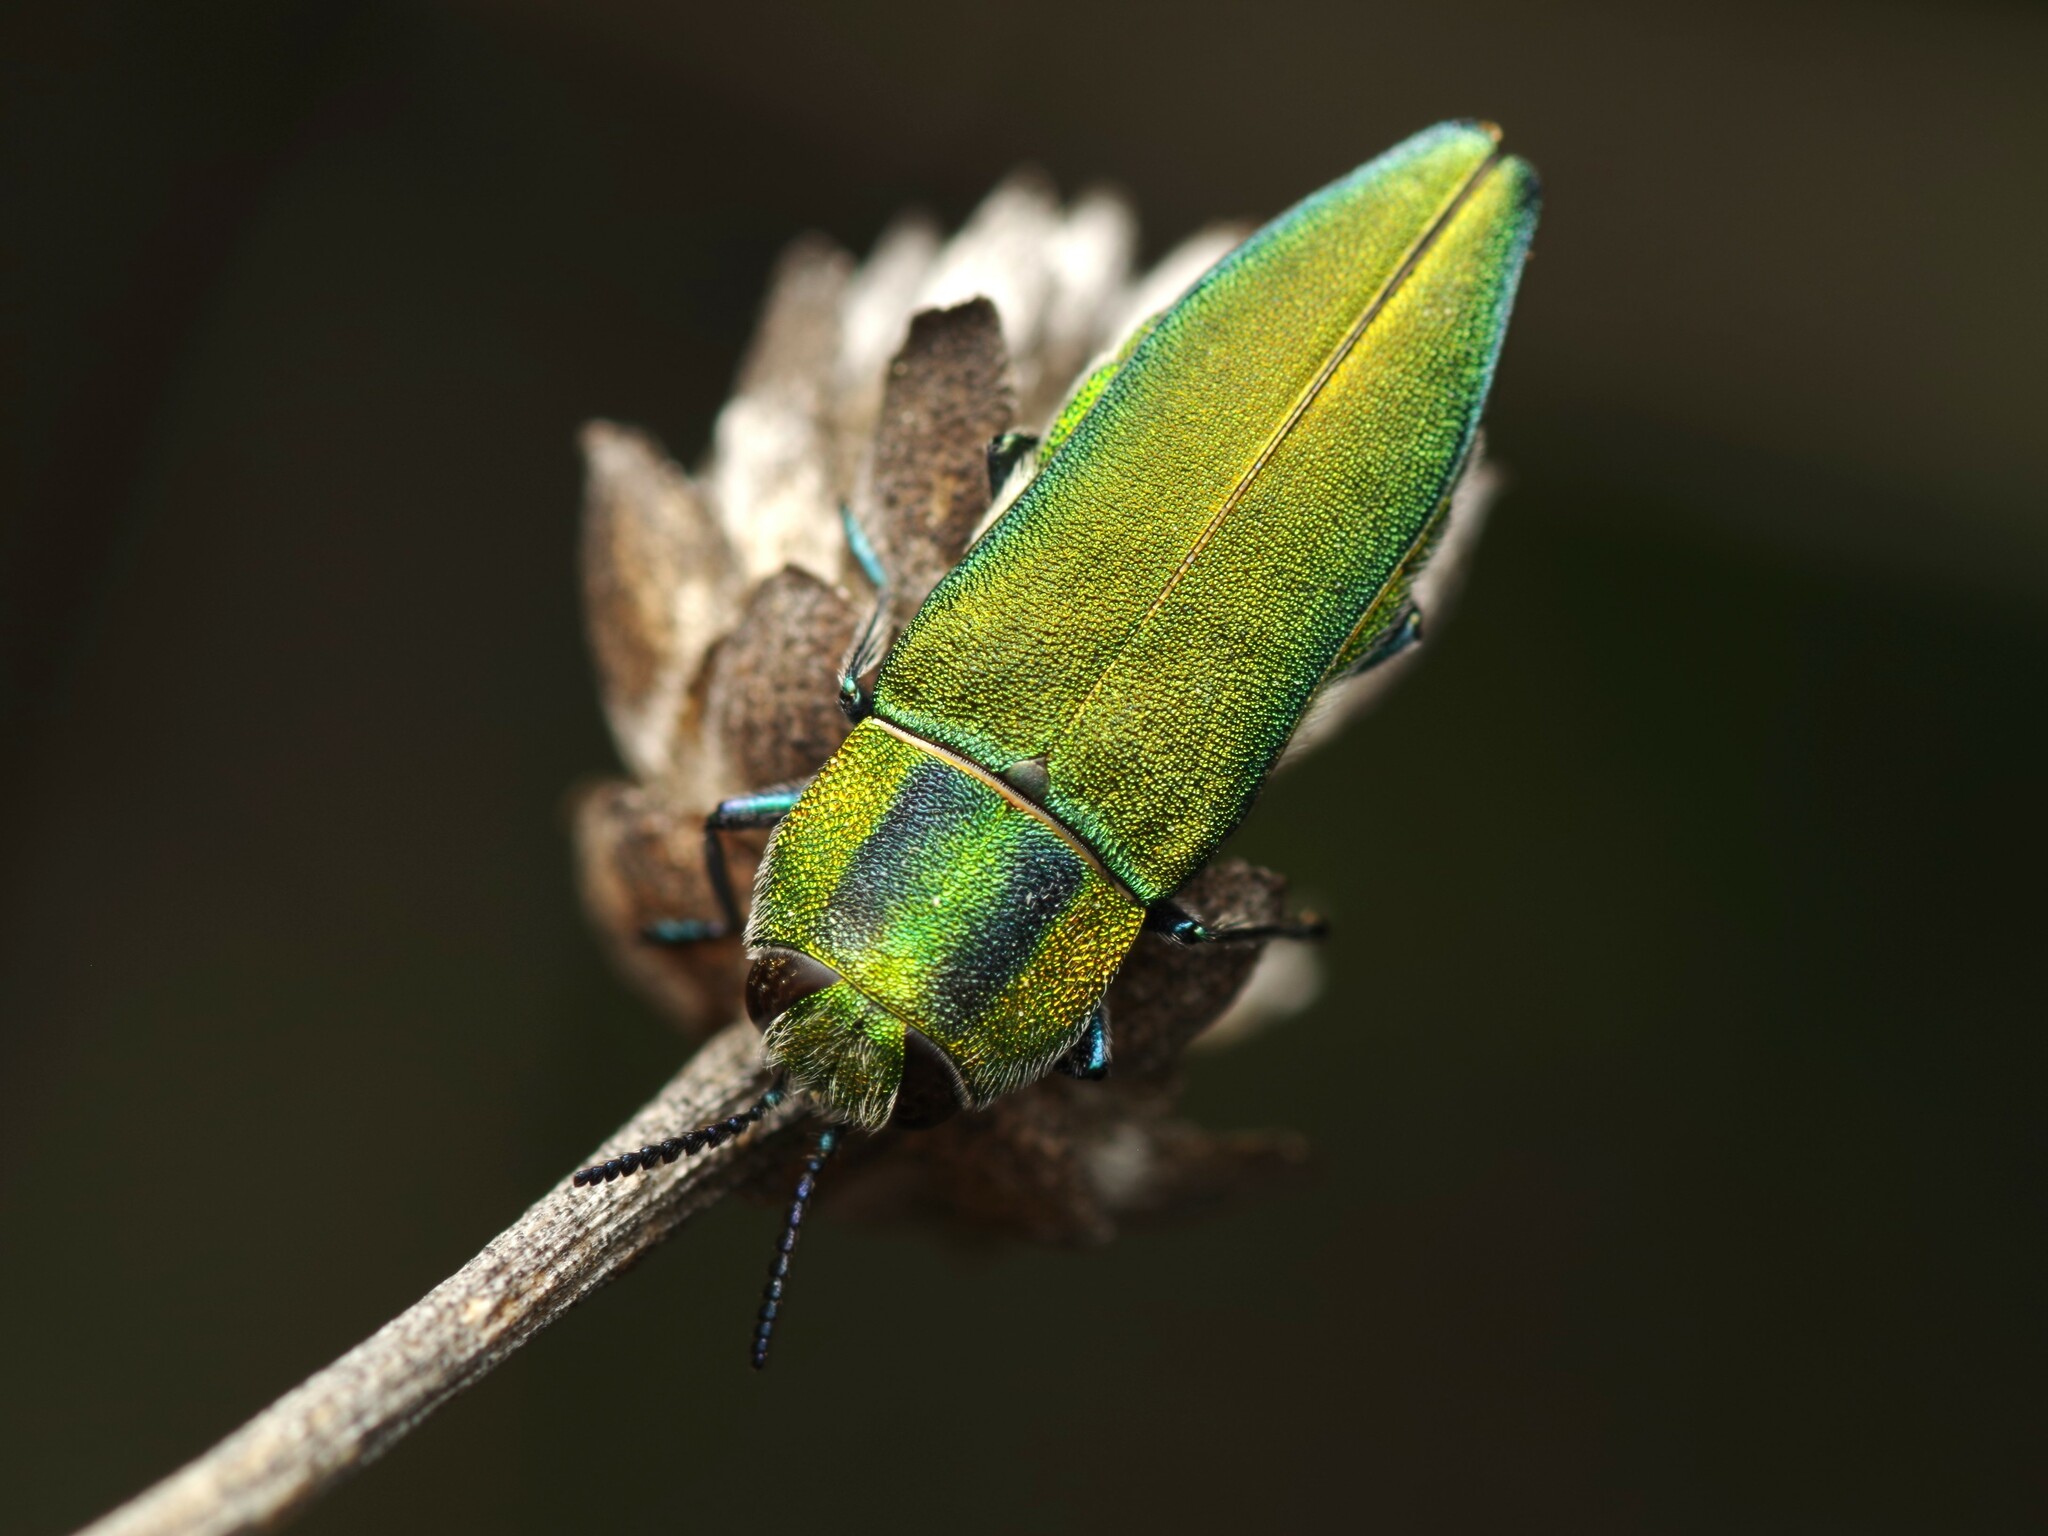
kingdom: Animalia
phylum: Arthropoda
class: Insecta
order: Coleoptera
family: Buprestidae
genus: Anthaxia
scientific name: Anthaxia hungarica
